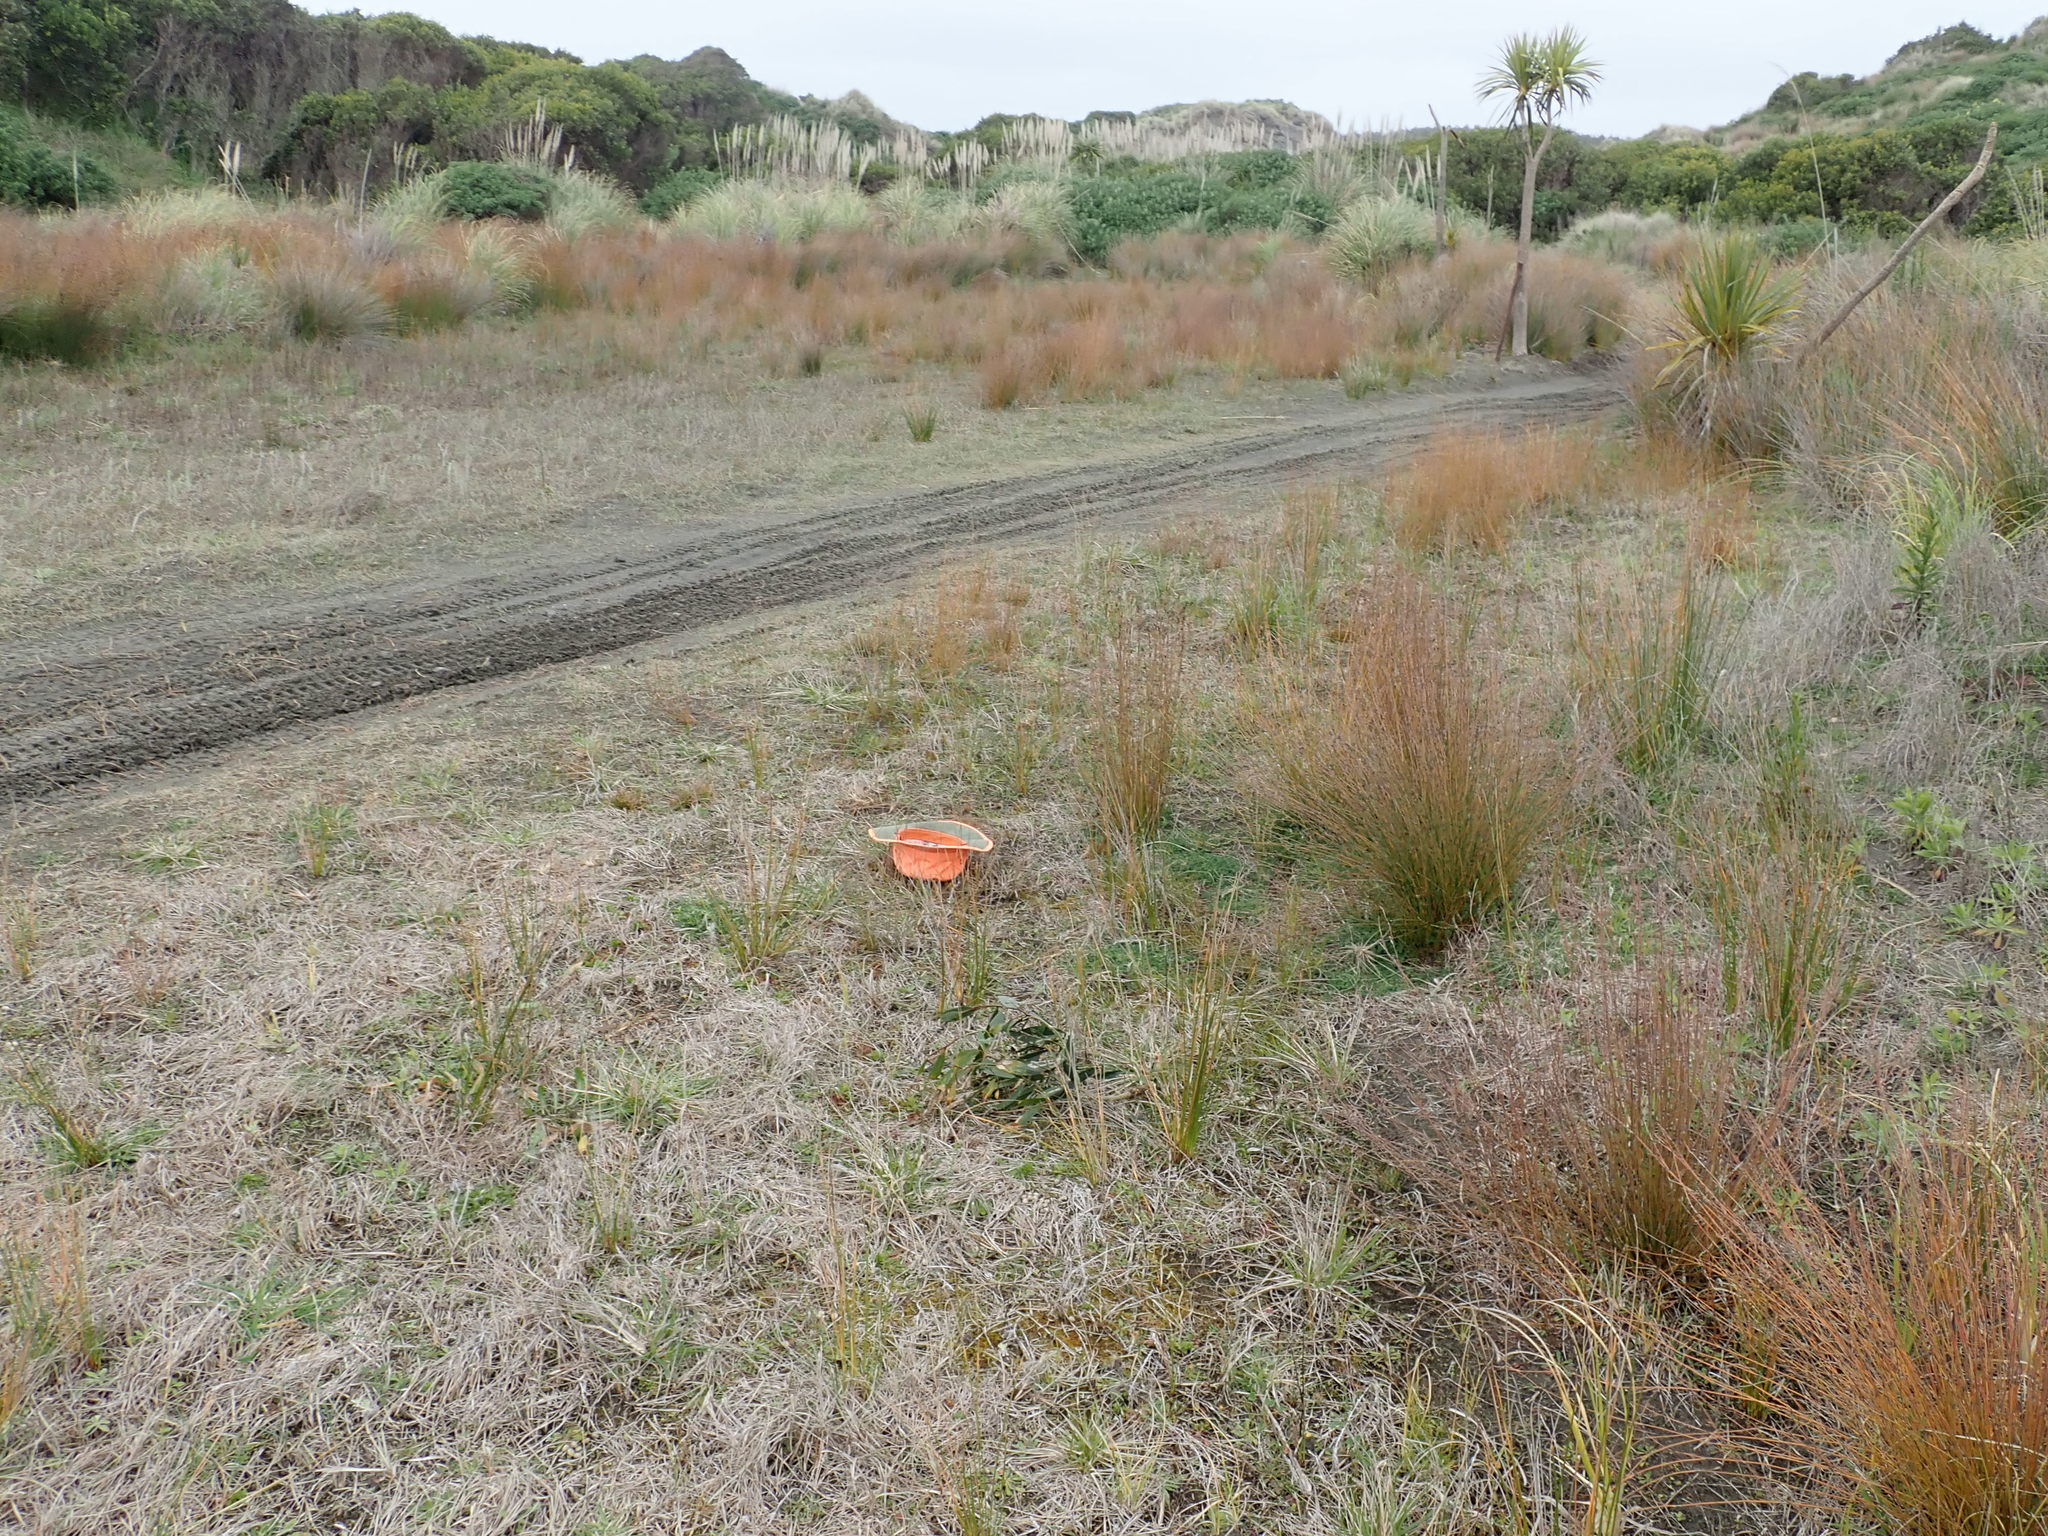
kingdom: Plantae
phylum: Tracheophyta
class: Liliopsida
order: Poales
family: Juncaceae
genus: Juncus
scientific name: Juncus caespiticius
